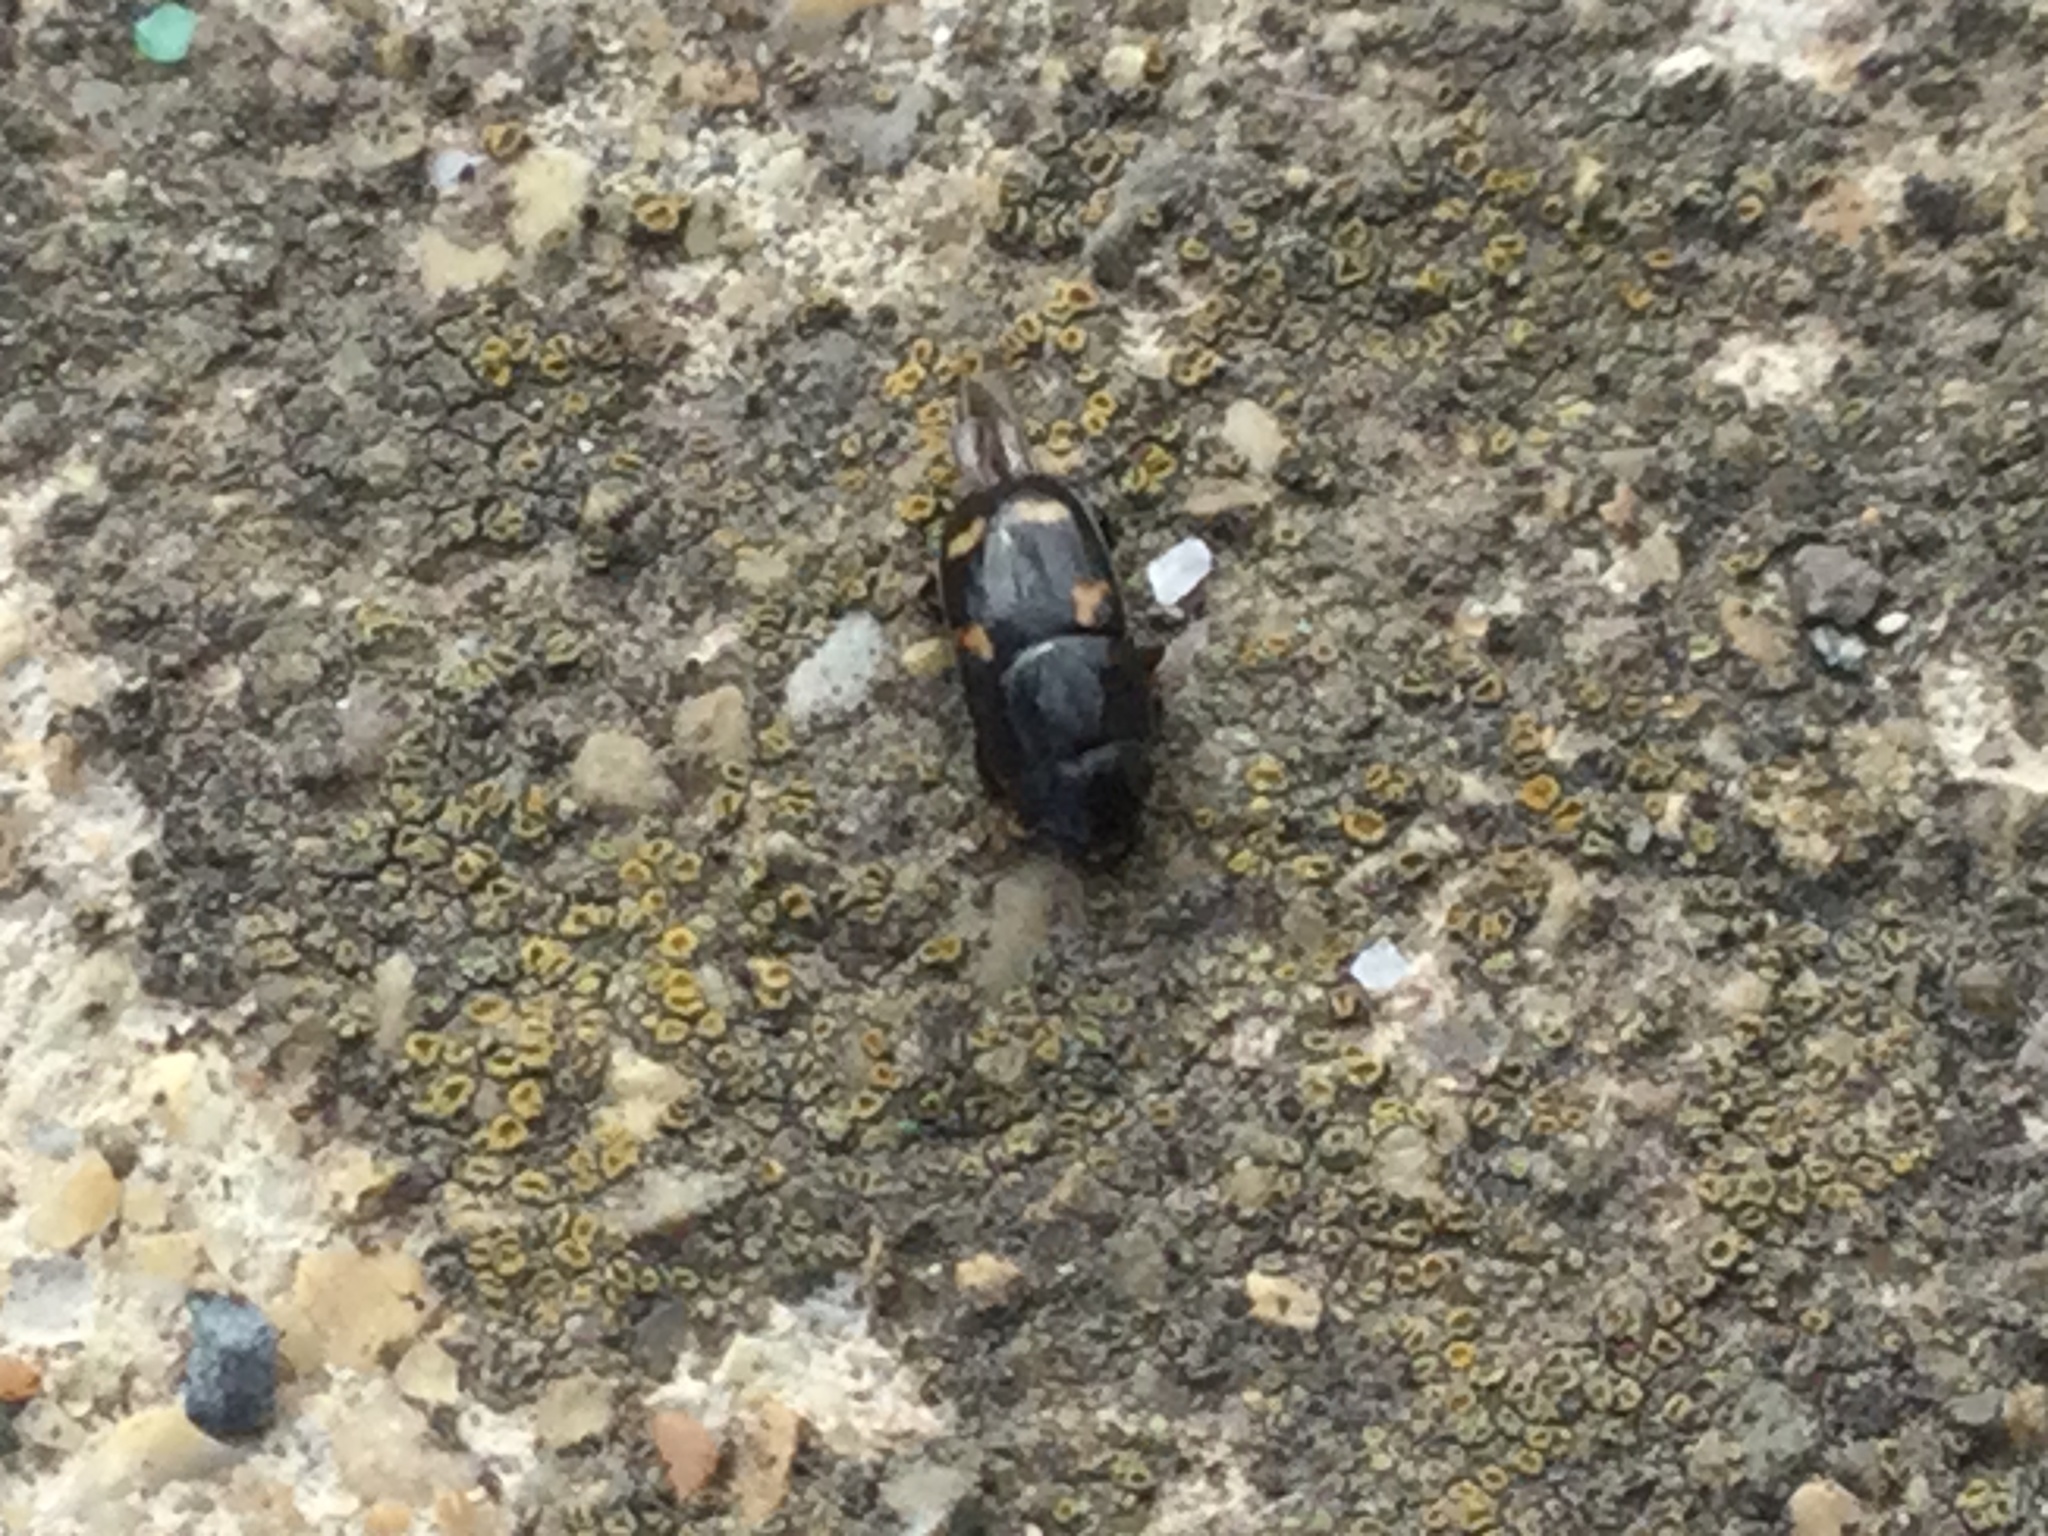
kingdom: Animalia
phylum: Arthropoda
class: Insecta
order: Coleoptera
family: Nitidulidae
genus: Glischrochilus
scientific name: Glischrochilus quadrisignatus
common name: Picnic beetle
